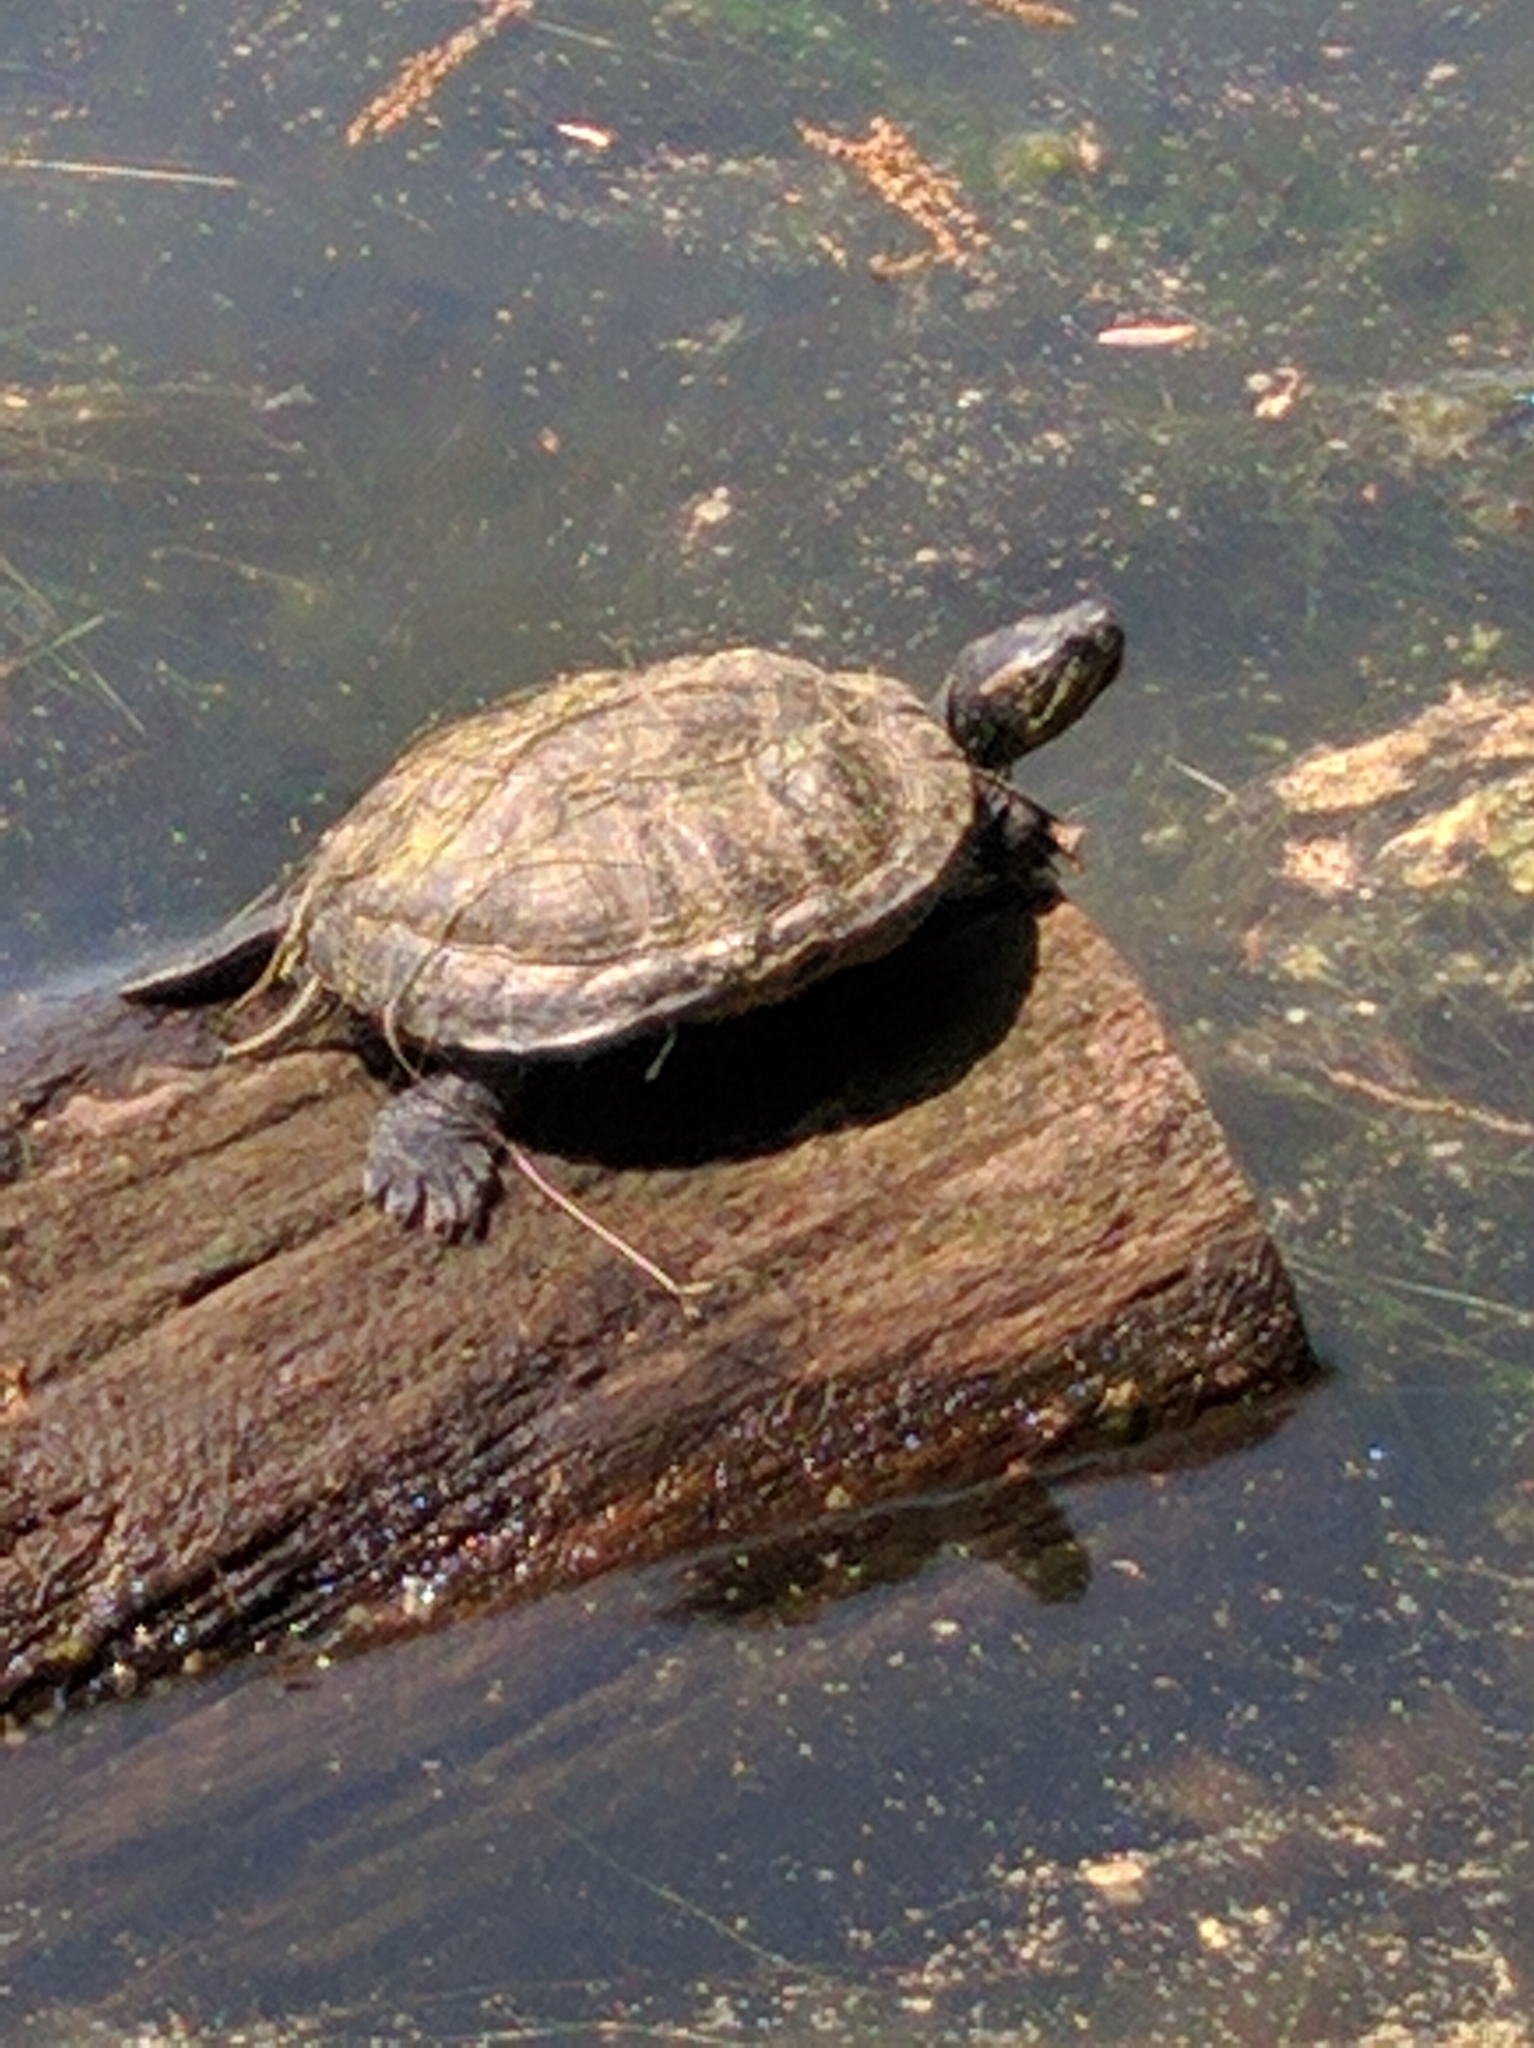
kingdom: Animalia
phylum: Chordata
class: Testudines
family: Emydidae
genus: Trachemys
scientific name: Trachemys scripta
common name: Slider
